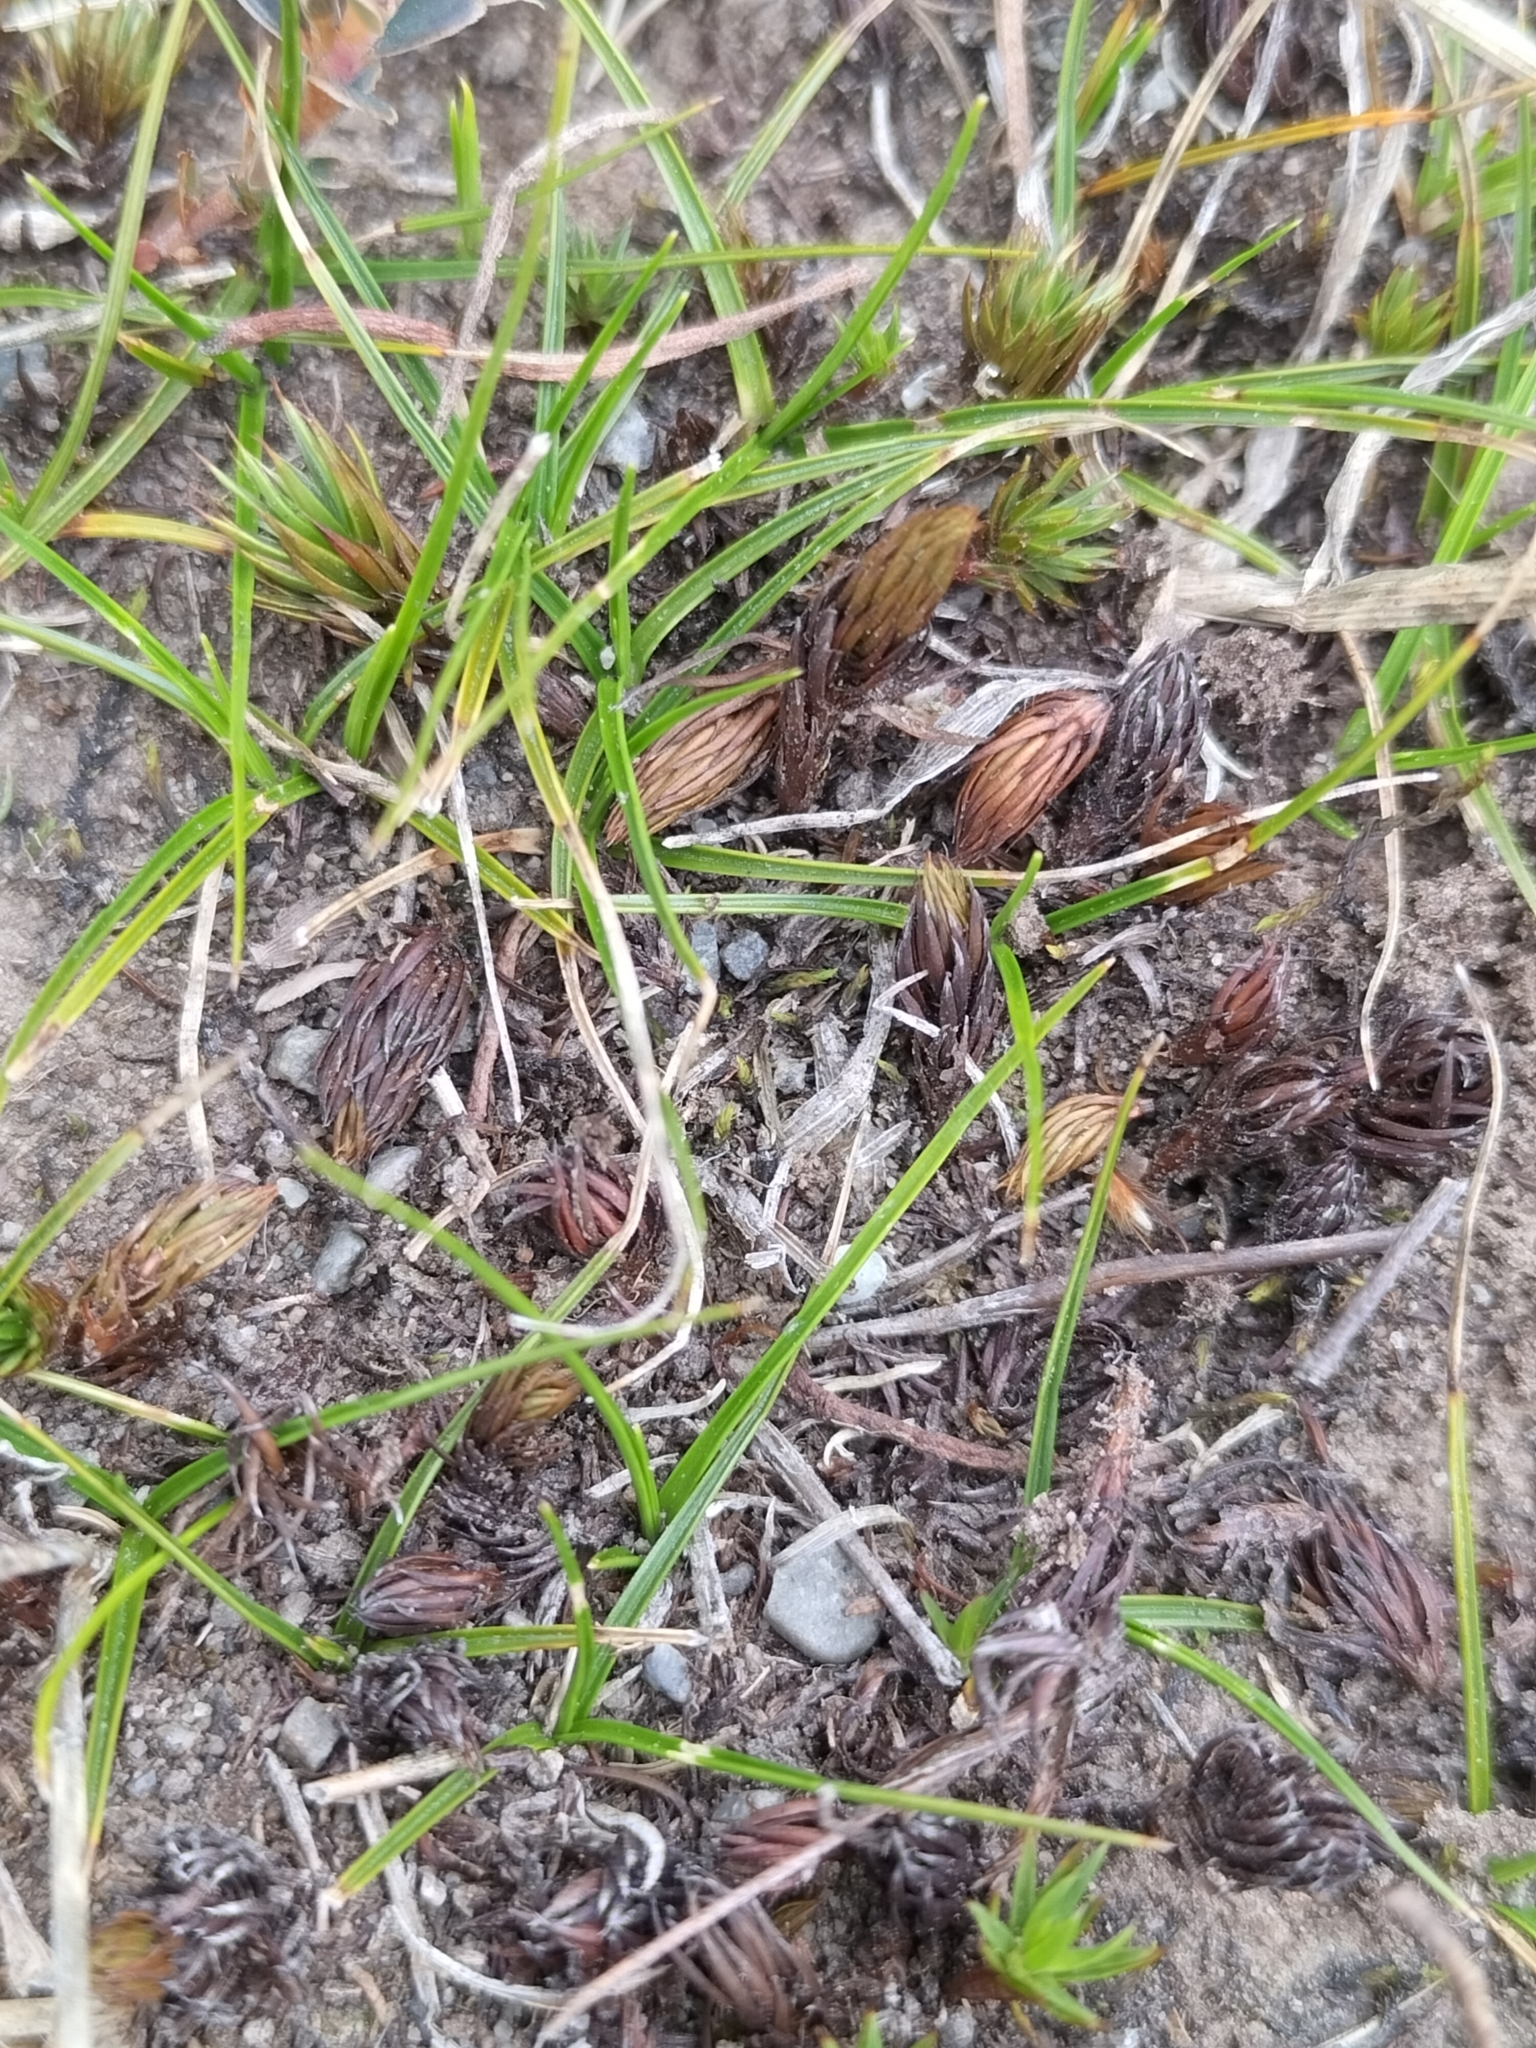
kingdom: Plantae
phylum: Tracheophyta
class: Liliopsida
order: Poales
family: Poaceae
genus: Zoysia
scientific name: Zoysia minima
